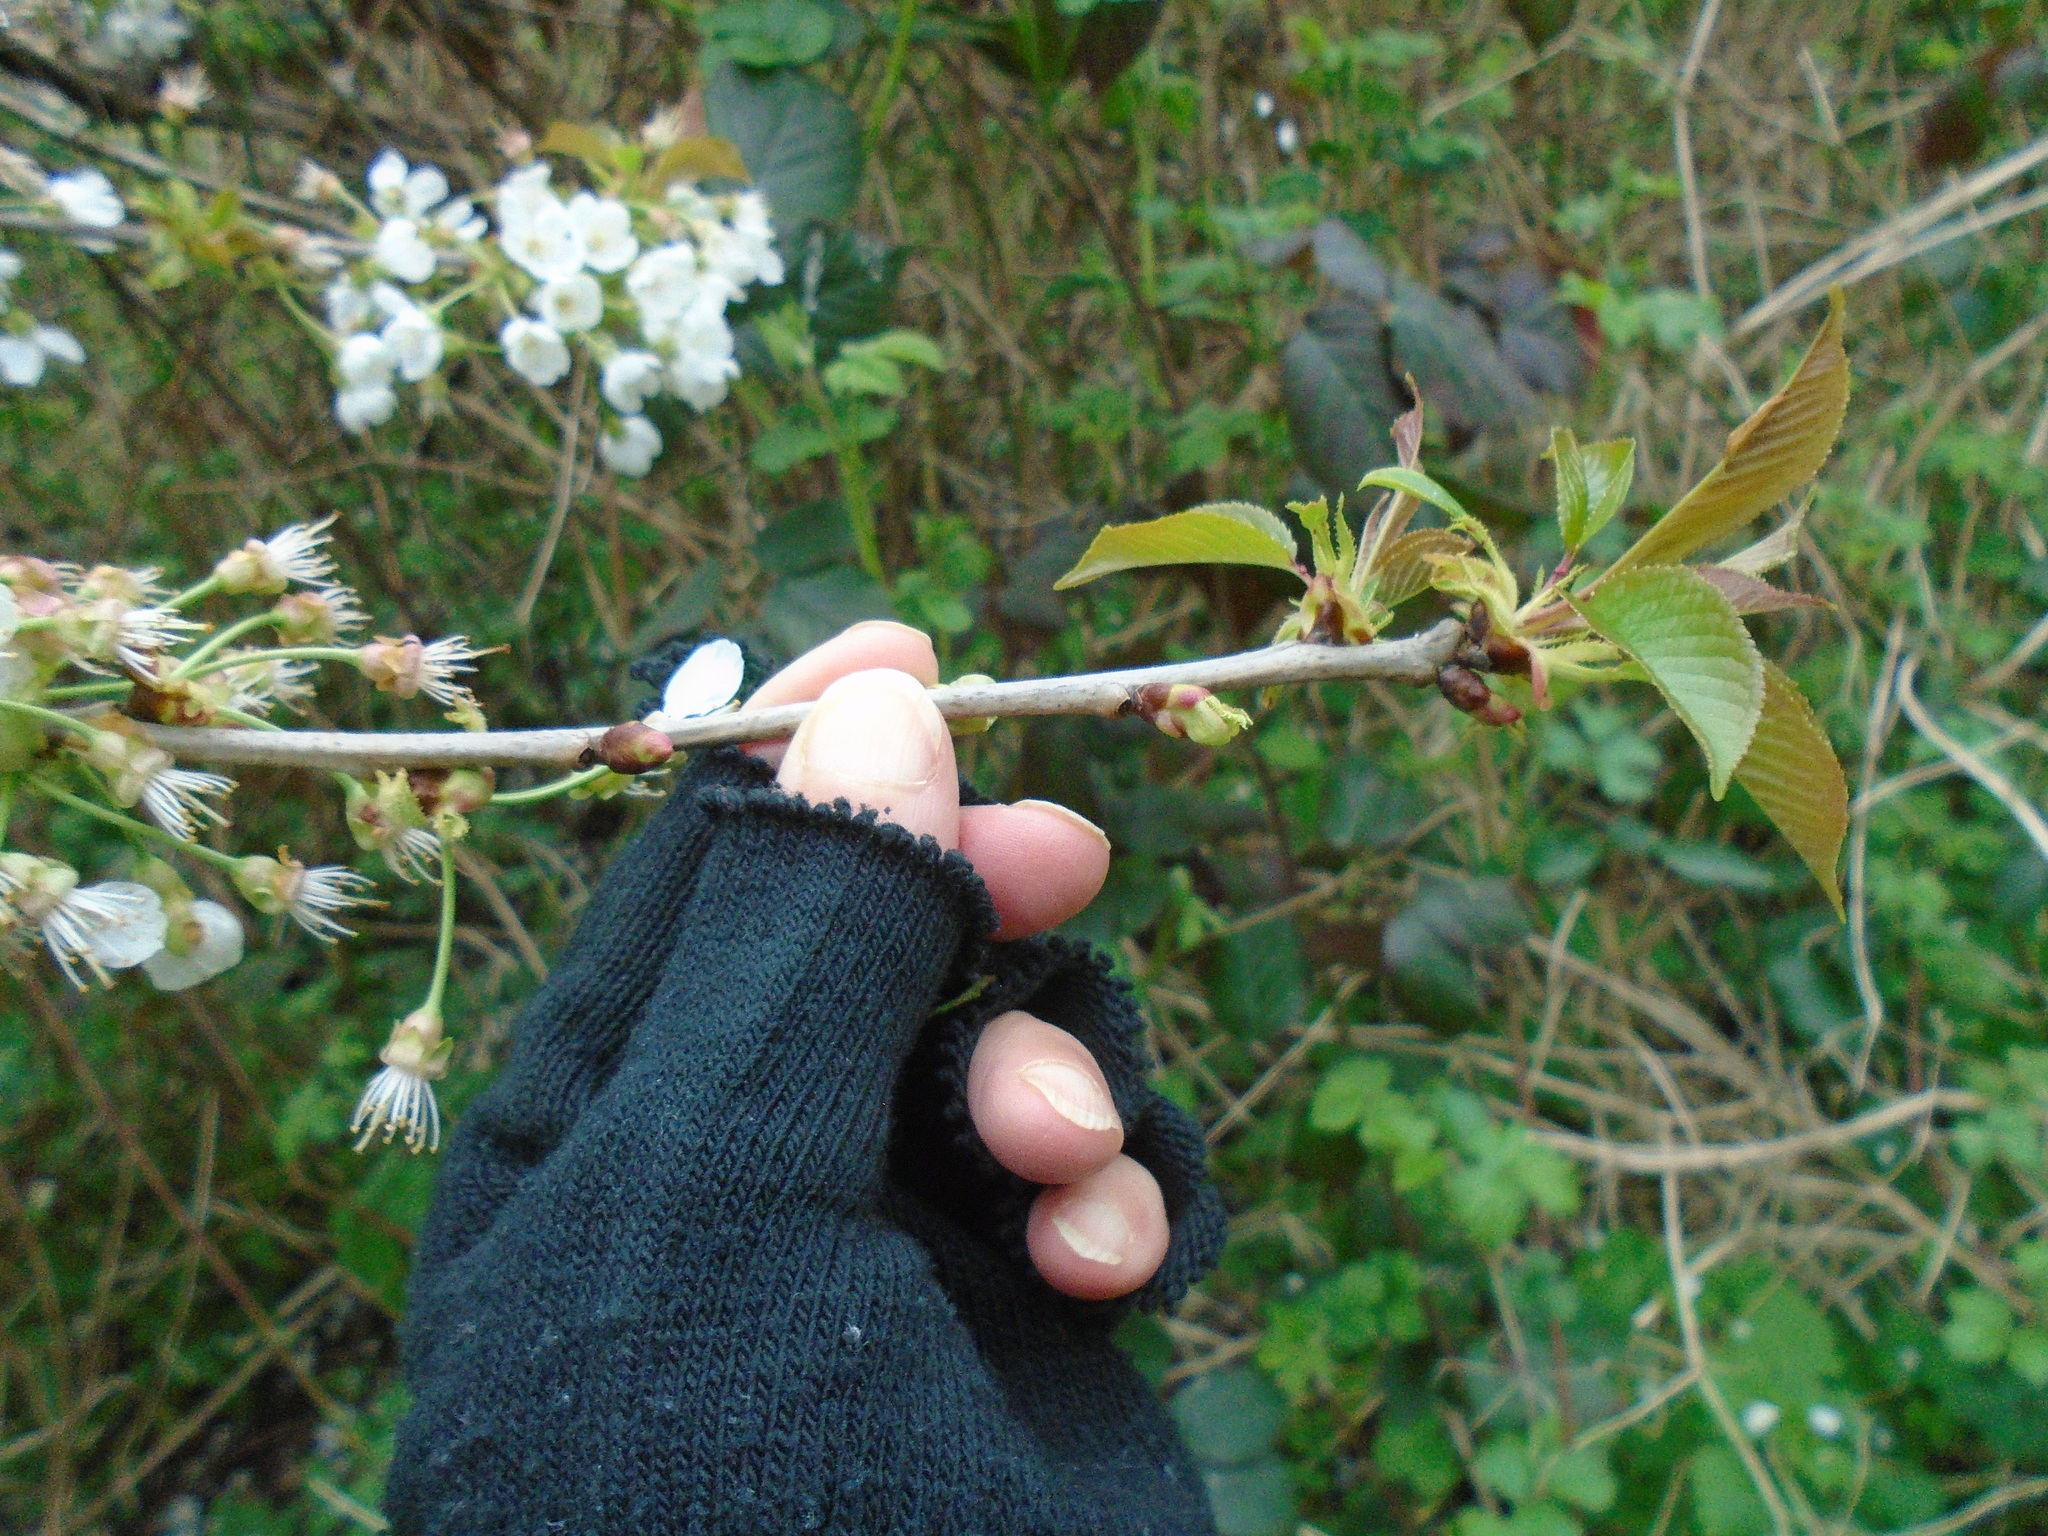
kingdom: Plantae
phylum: Tracheophyta
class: Magnoliopsida
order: Rosales
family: Rosaceae
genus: Prunus
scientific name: Prunus avium
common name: Sweet cherry
